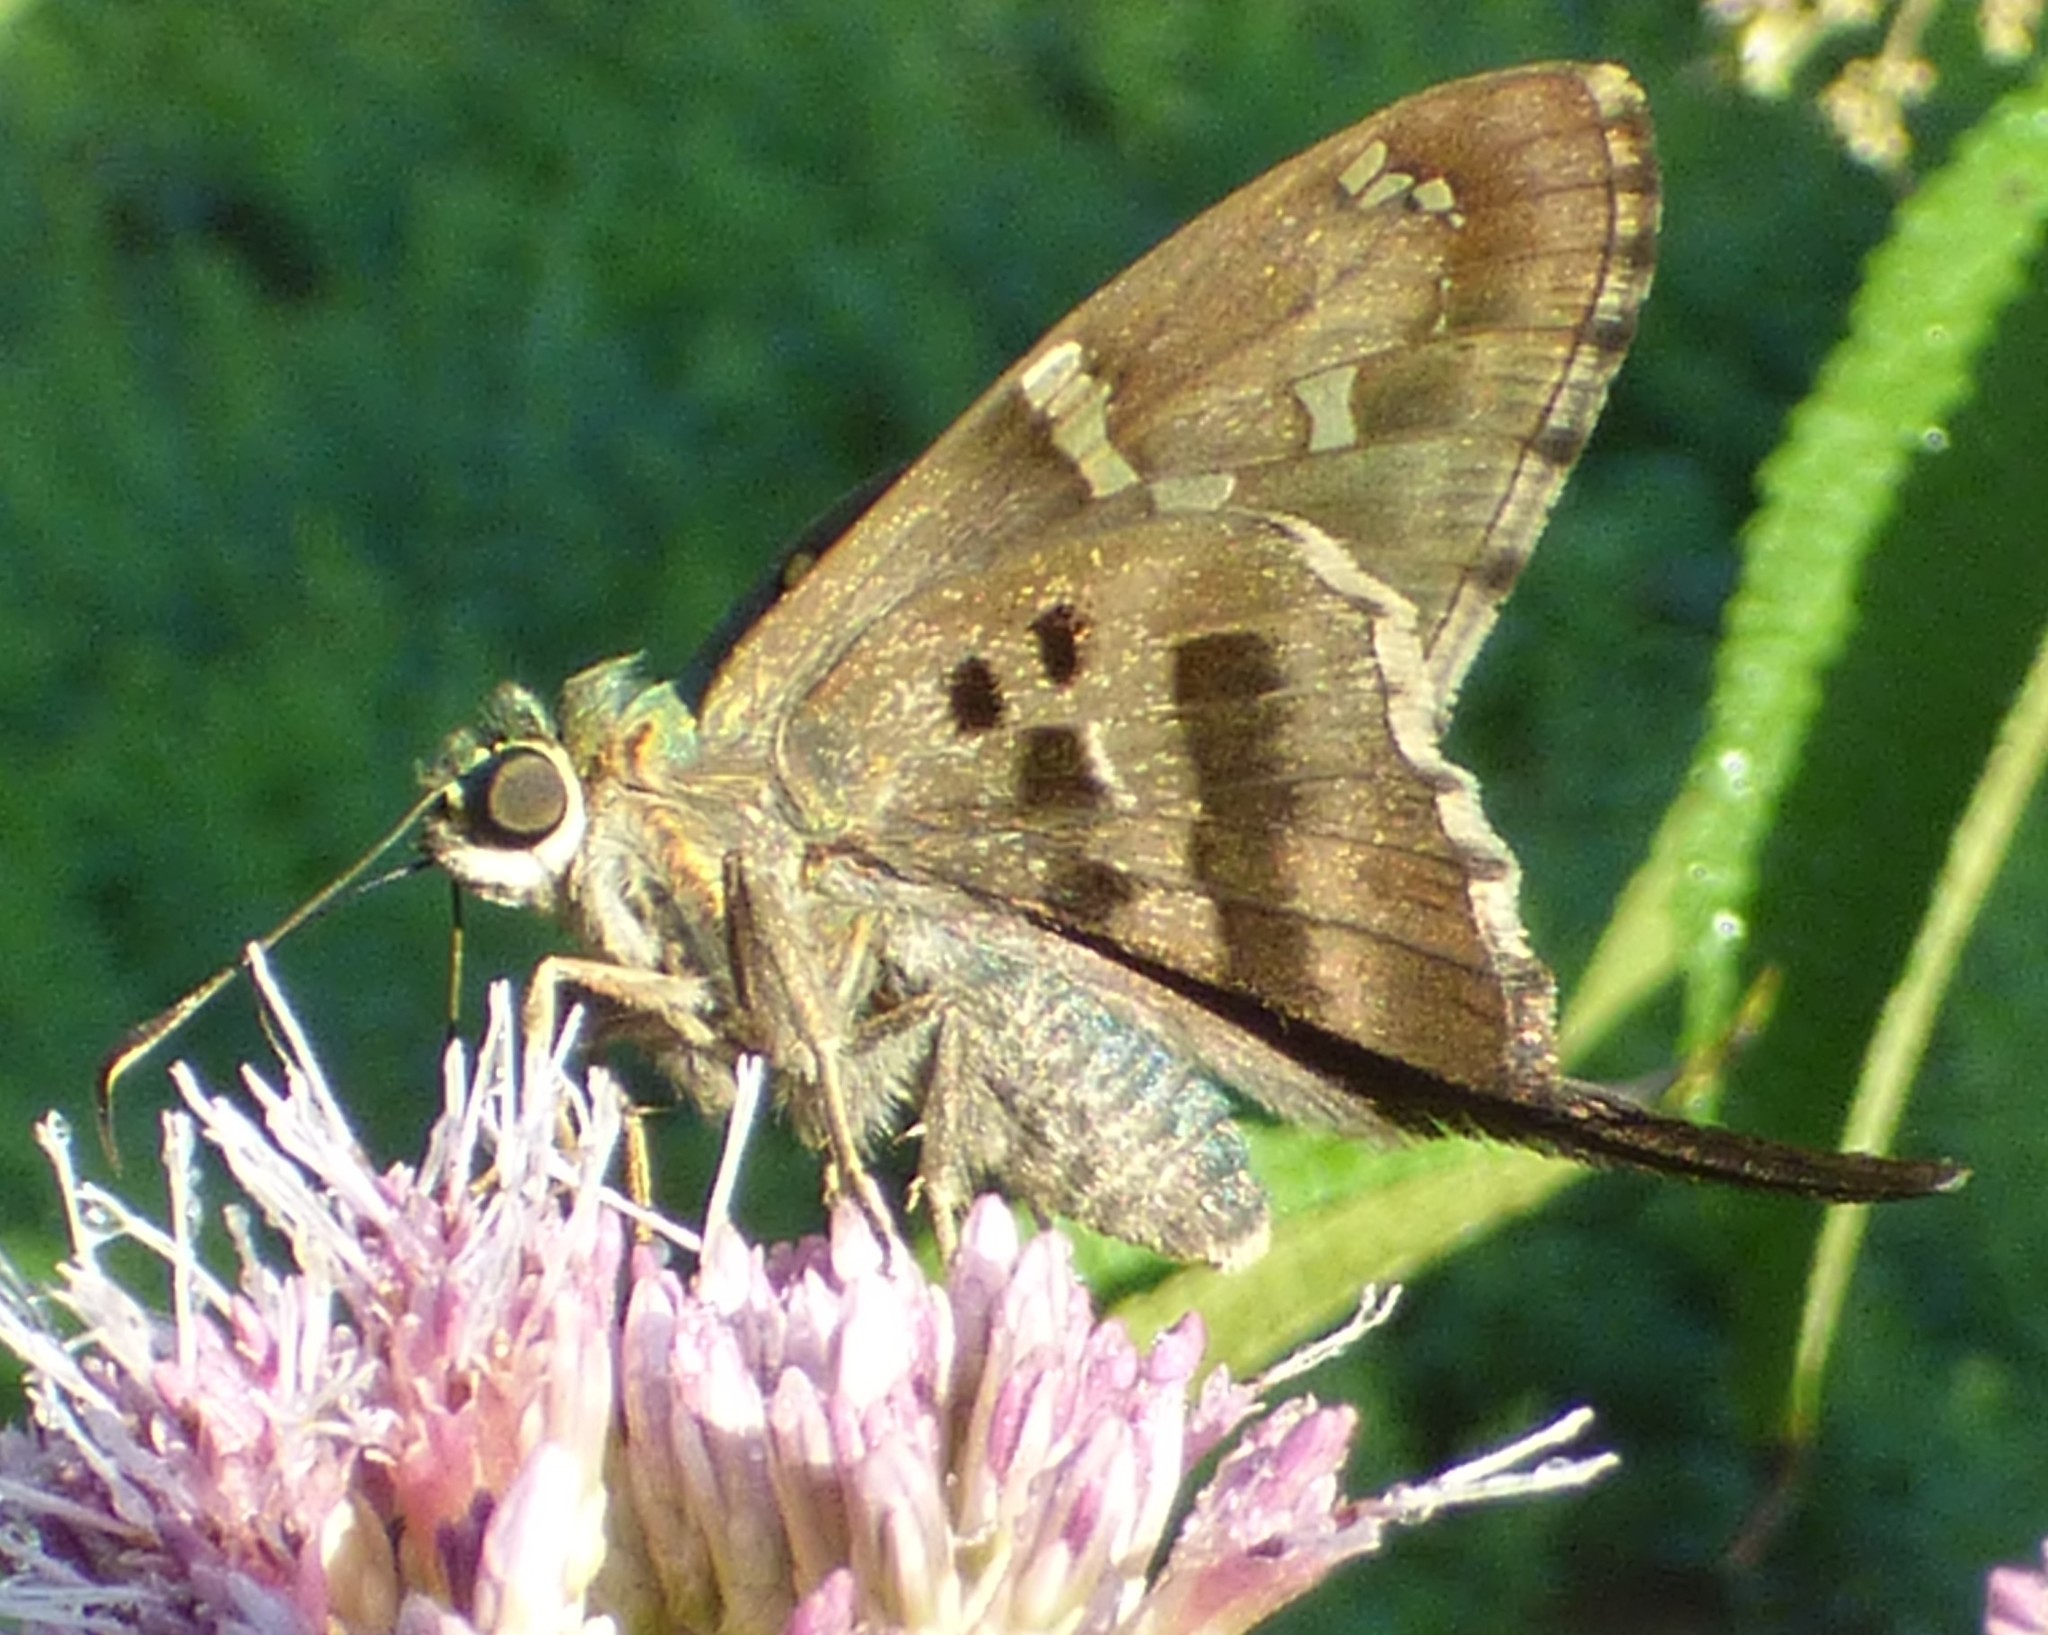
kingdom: Animalia
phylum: Arthropoda
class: Insecta
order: Lepidoptera
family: Hesperiidae
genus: Urbanus
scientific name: Urbanus proteus
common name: Long-tailed skipper
